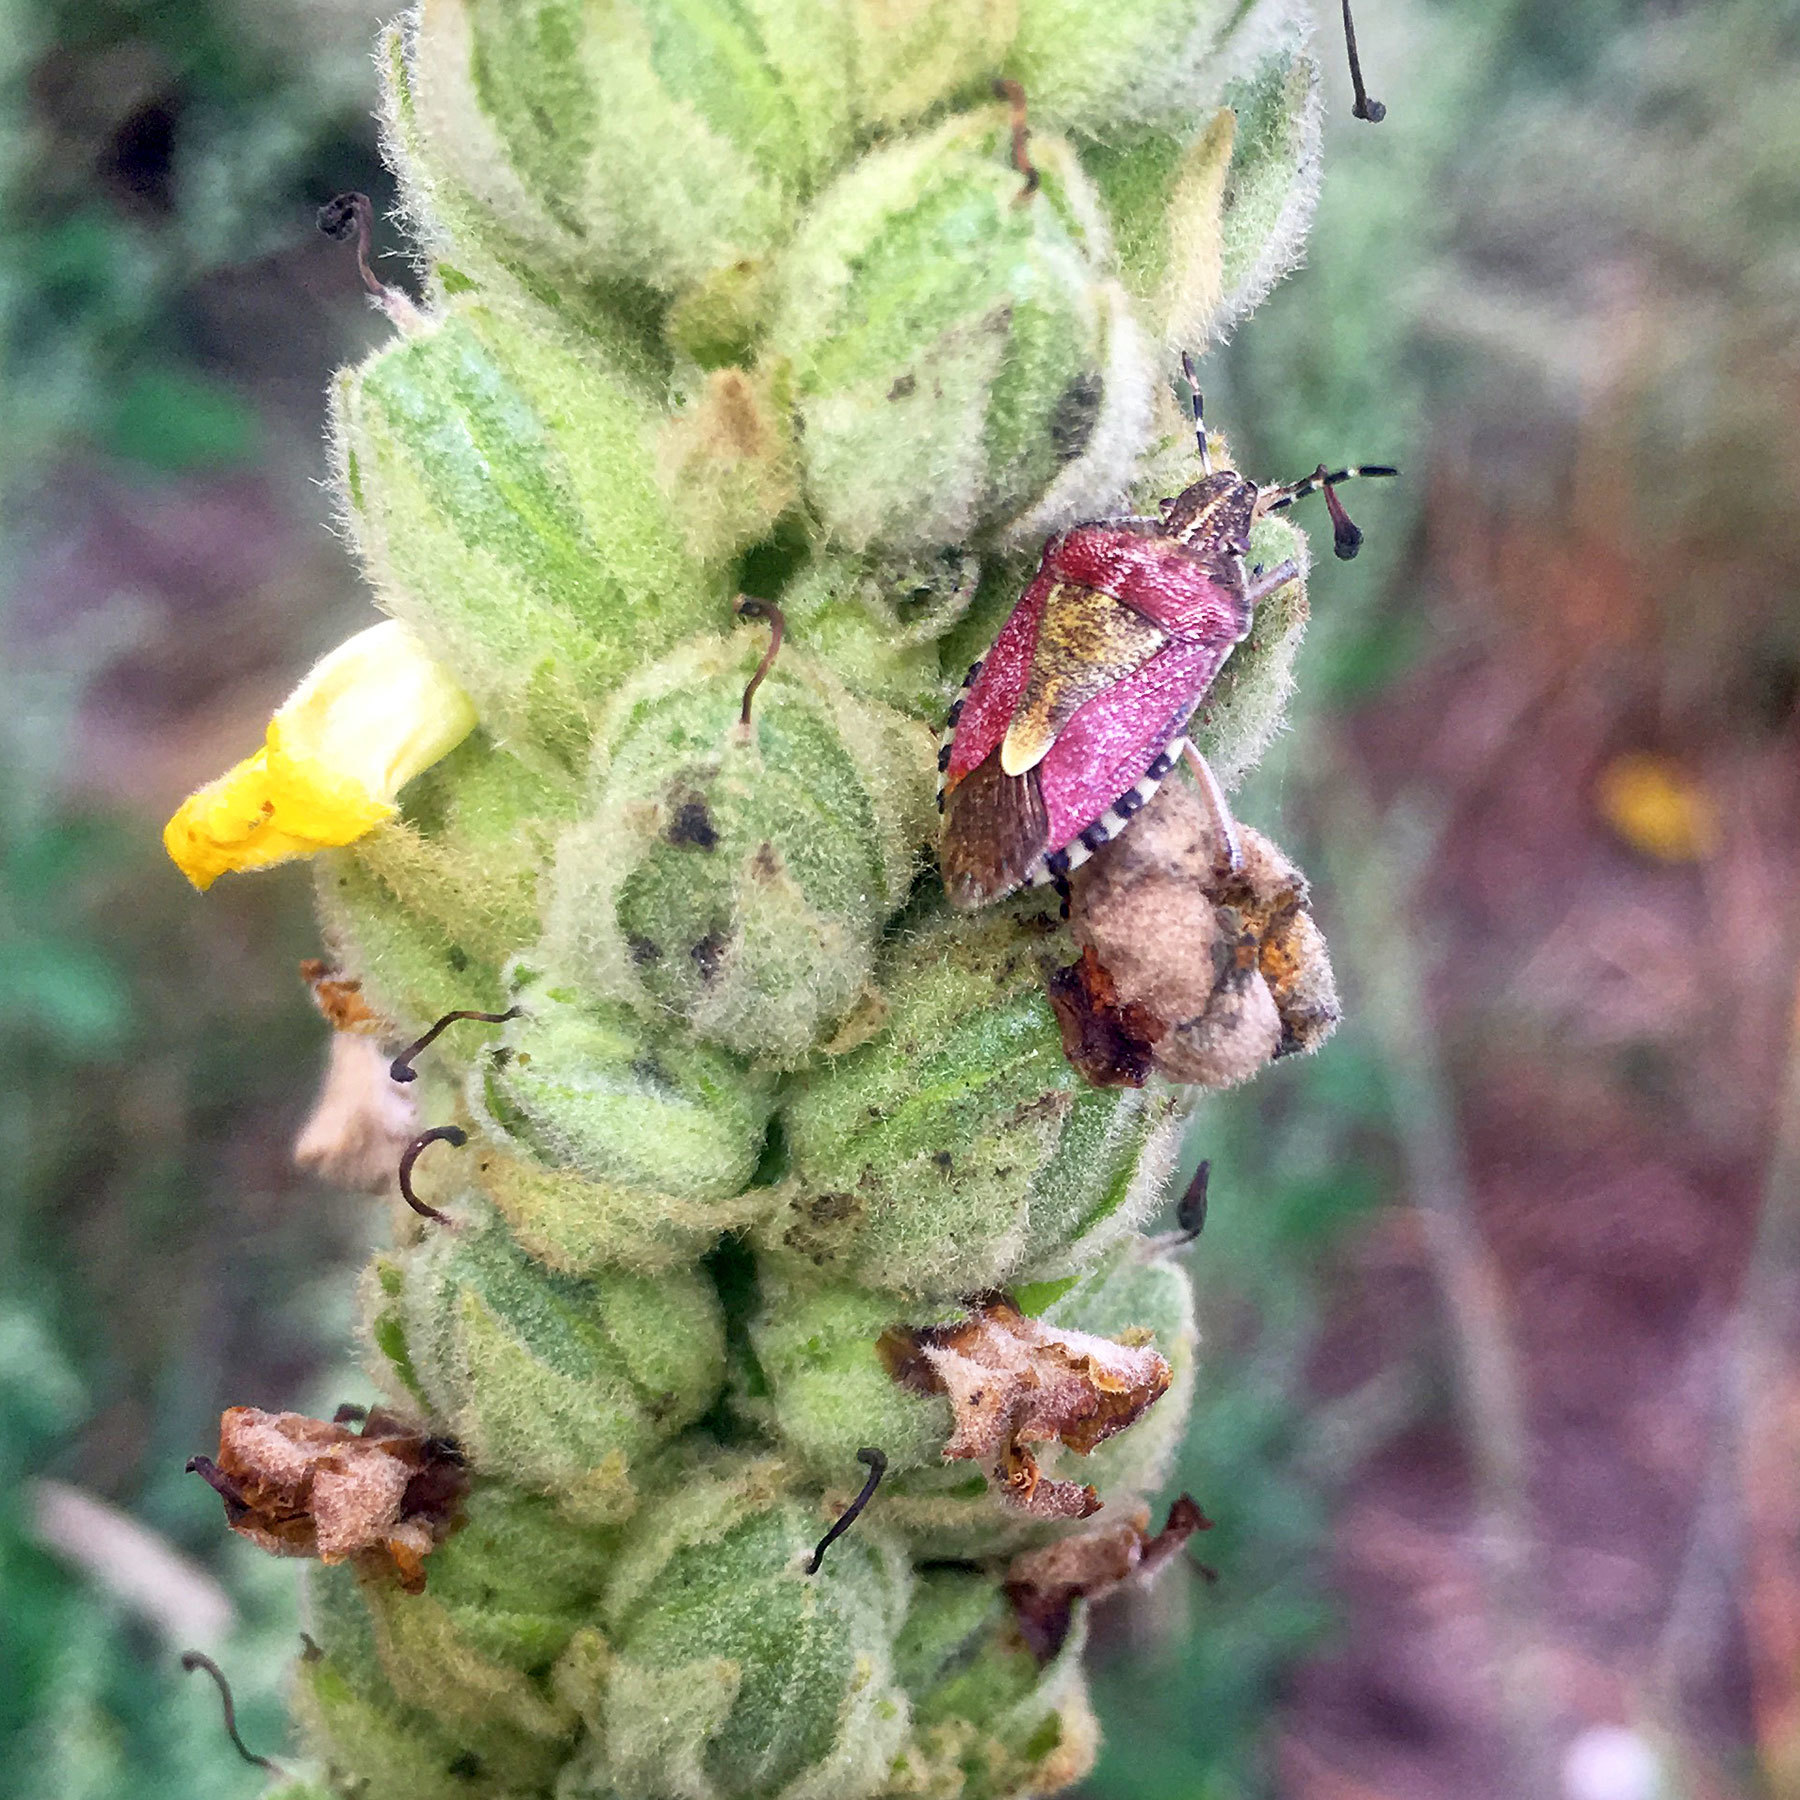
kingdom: Animalia
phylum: Arthropoda
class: Insecta
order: Hemiptera
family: Pentatomidae
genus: Dolycoris
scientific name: Dolycoris baccarum
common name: Sloe bug
